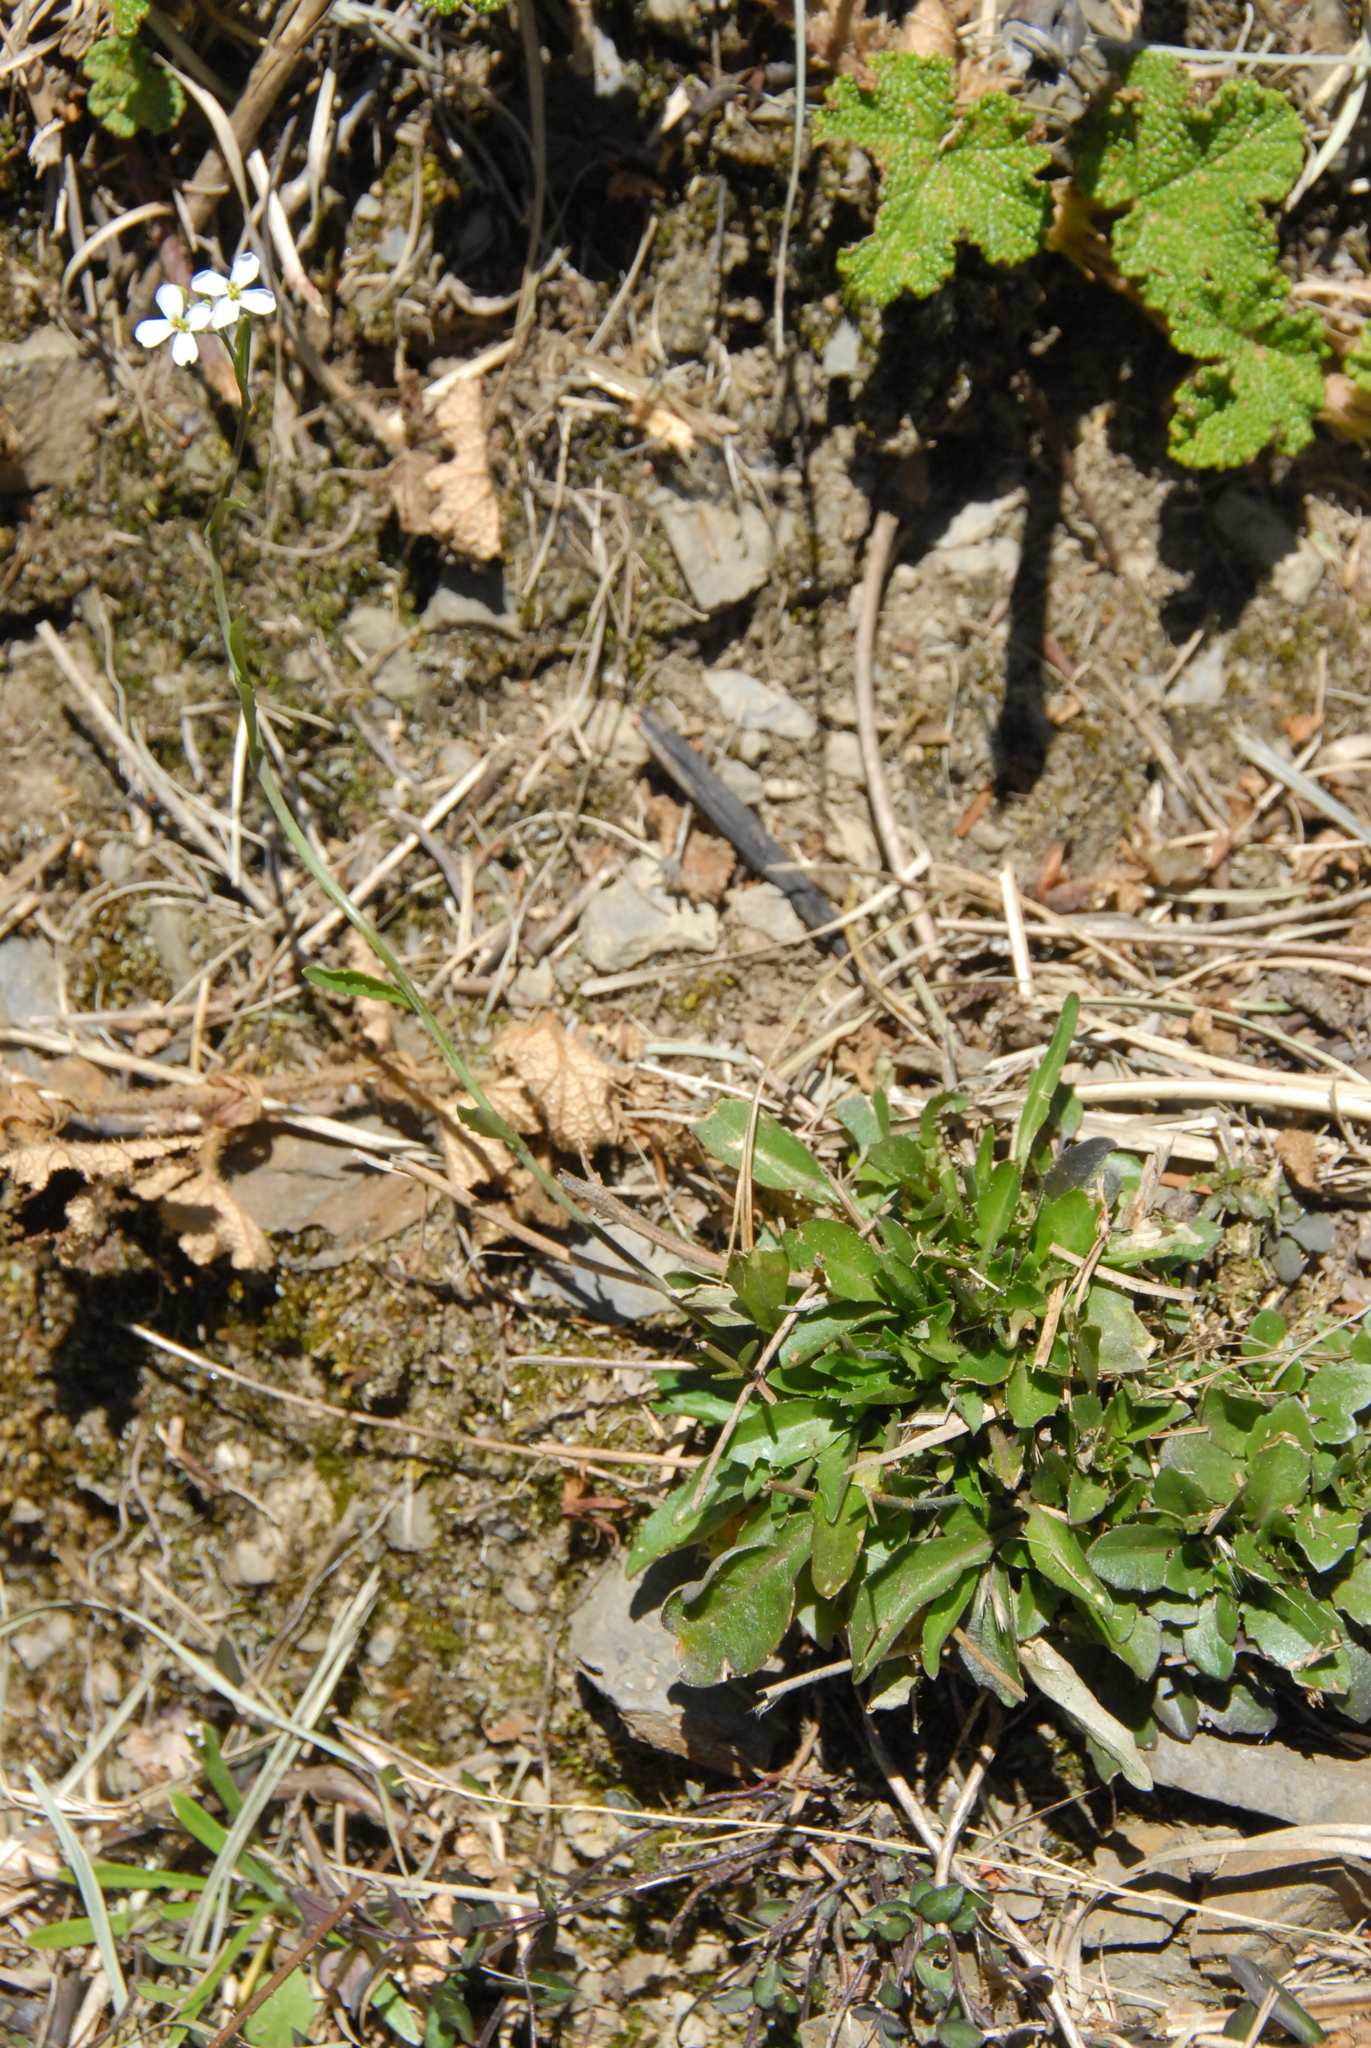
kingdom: Plantae
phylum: Tracheophyta
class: Magnoliopsida
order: Brassicales
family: Brassicaceae
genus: Arabidopsis
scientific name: Arabidopsis lyrata
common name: Lyrate rockcress
